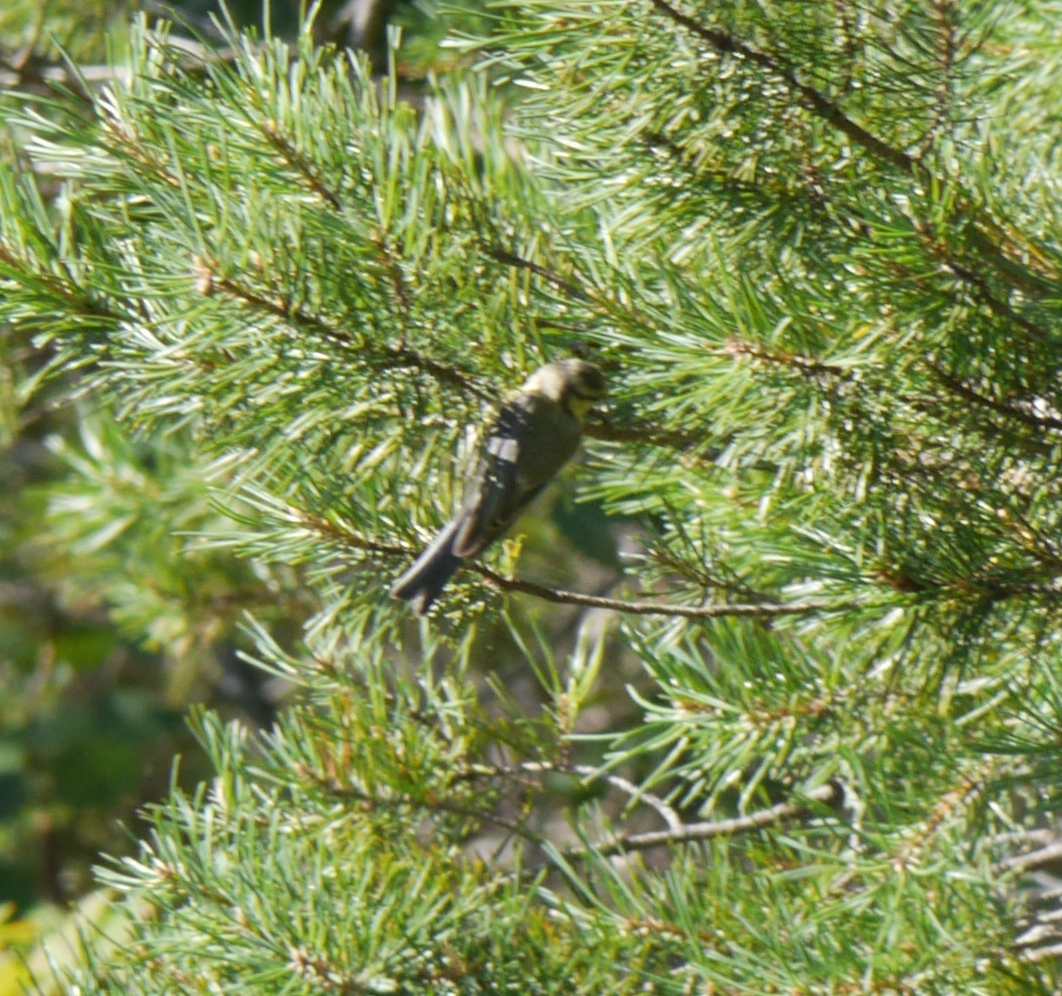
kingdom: Animalia
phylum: Chordata
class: Aves
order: Passeriformes
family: Paridae
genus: Cyanistes
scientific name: Cyanistes caeruleus
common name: Eurasian blue tit
